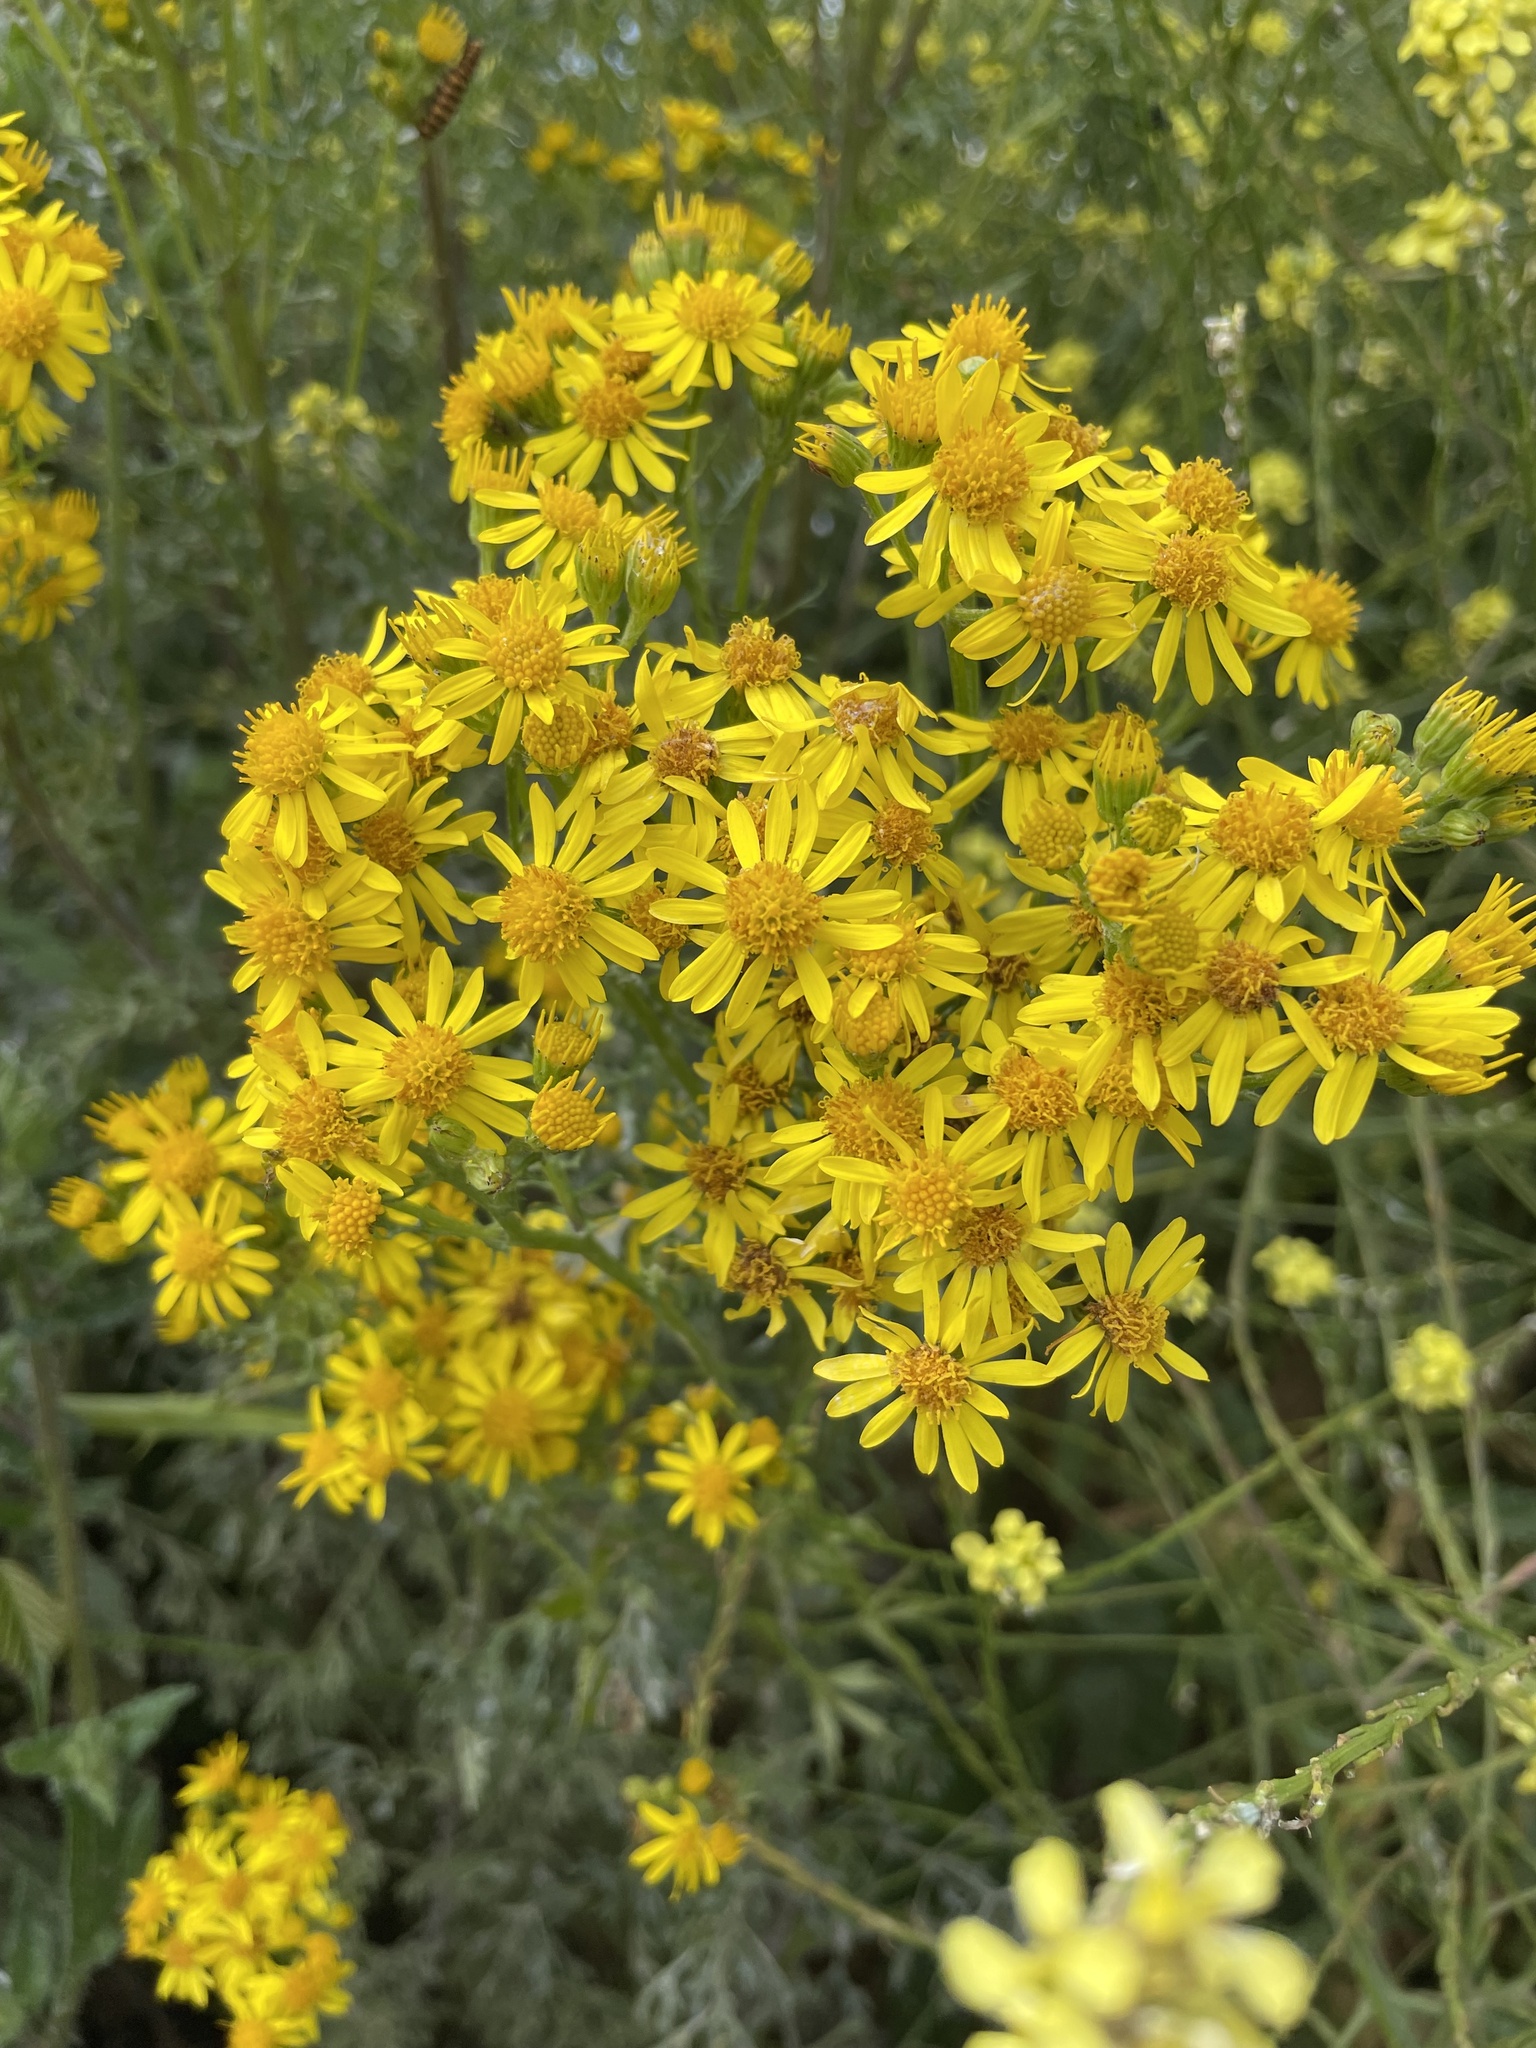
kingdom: Plantae
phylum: Tracheophyta
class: Magnoliopsida
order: Asterales
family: Asteraceae
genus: Jacobaea
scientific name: Jacobaea vulgaris
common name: Stinking willie
